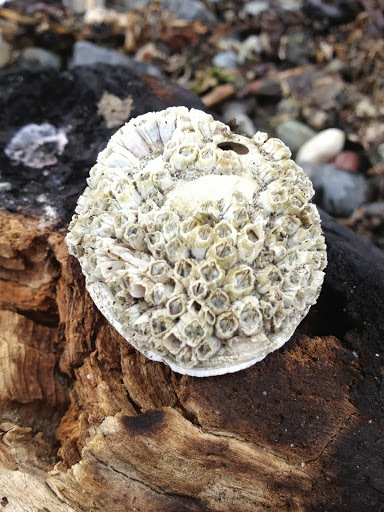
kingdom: Animalia
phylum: Arthropoda
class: Maxillopoda
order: Sessilia
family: Balanidae
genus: Balanus
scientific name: Balanus glandula
